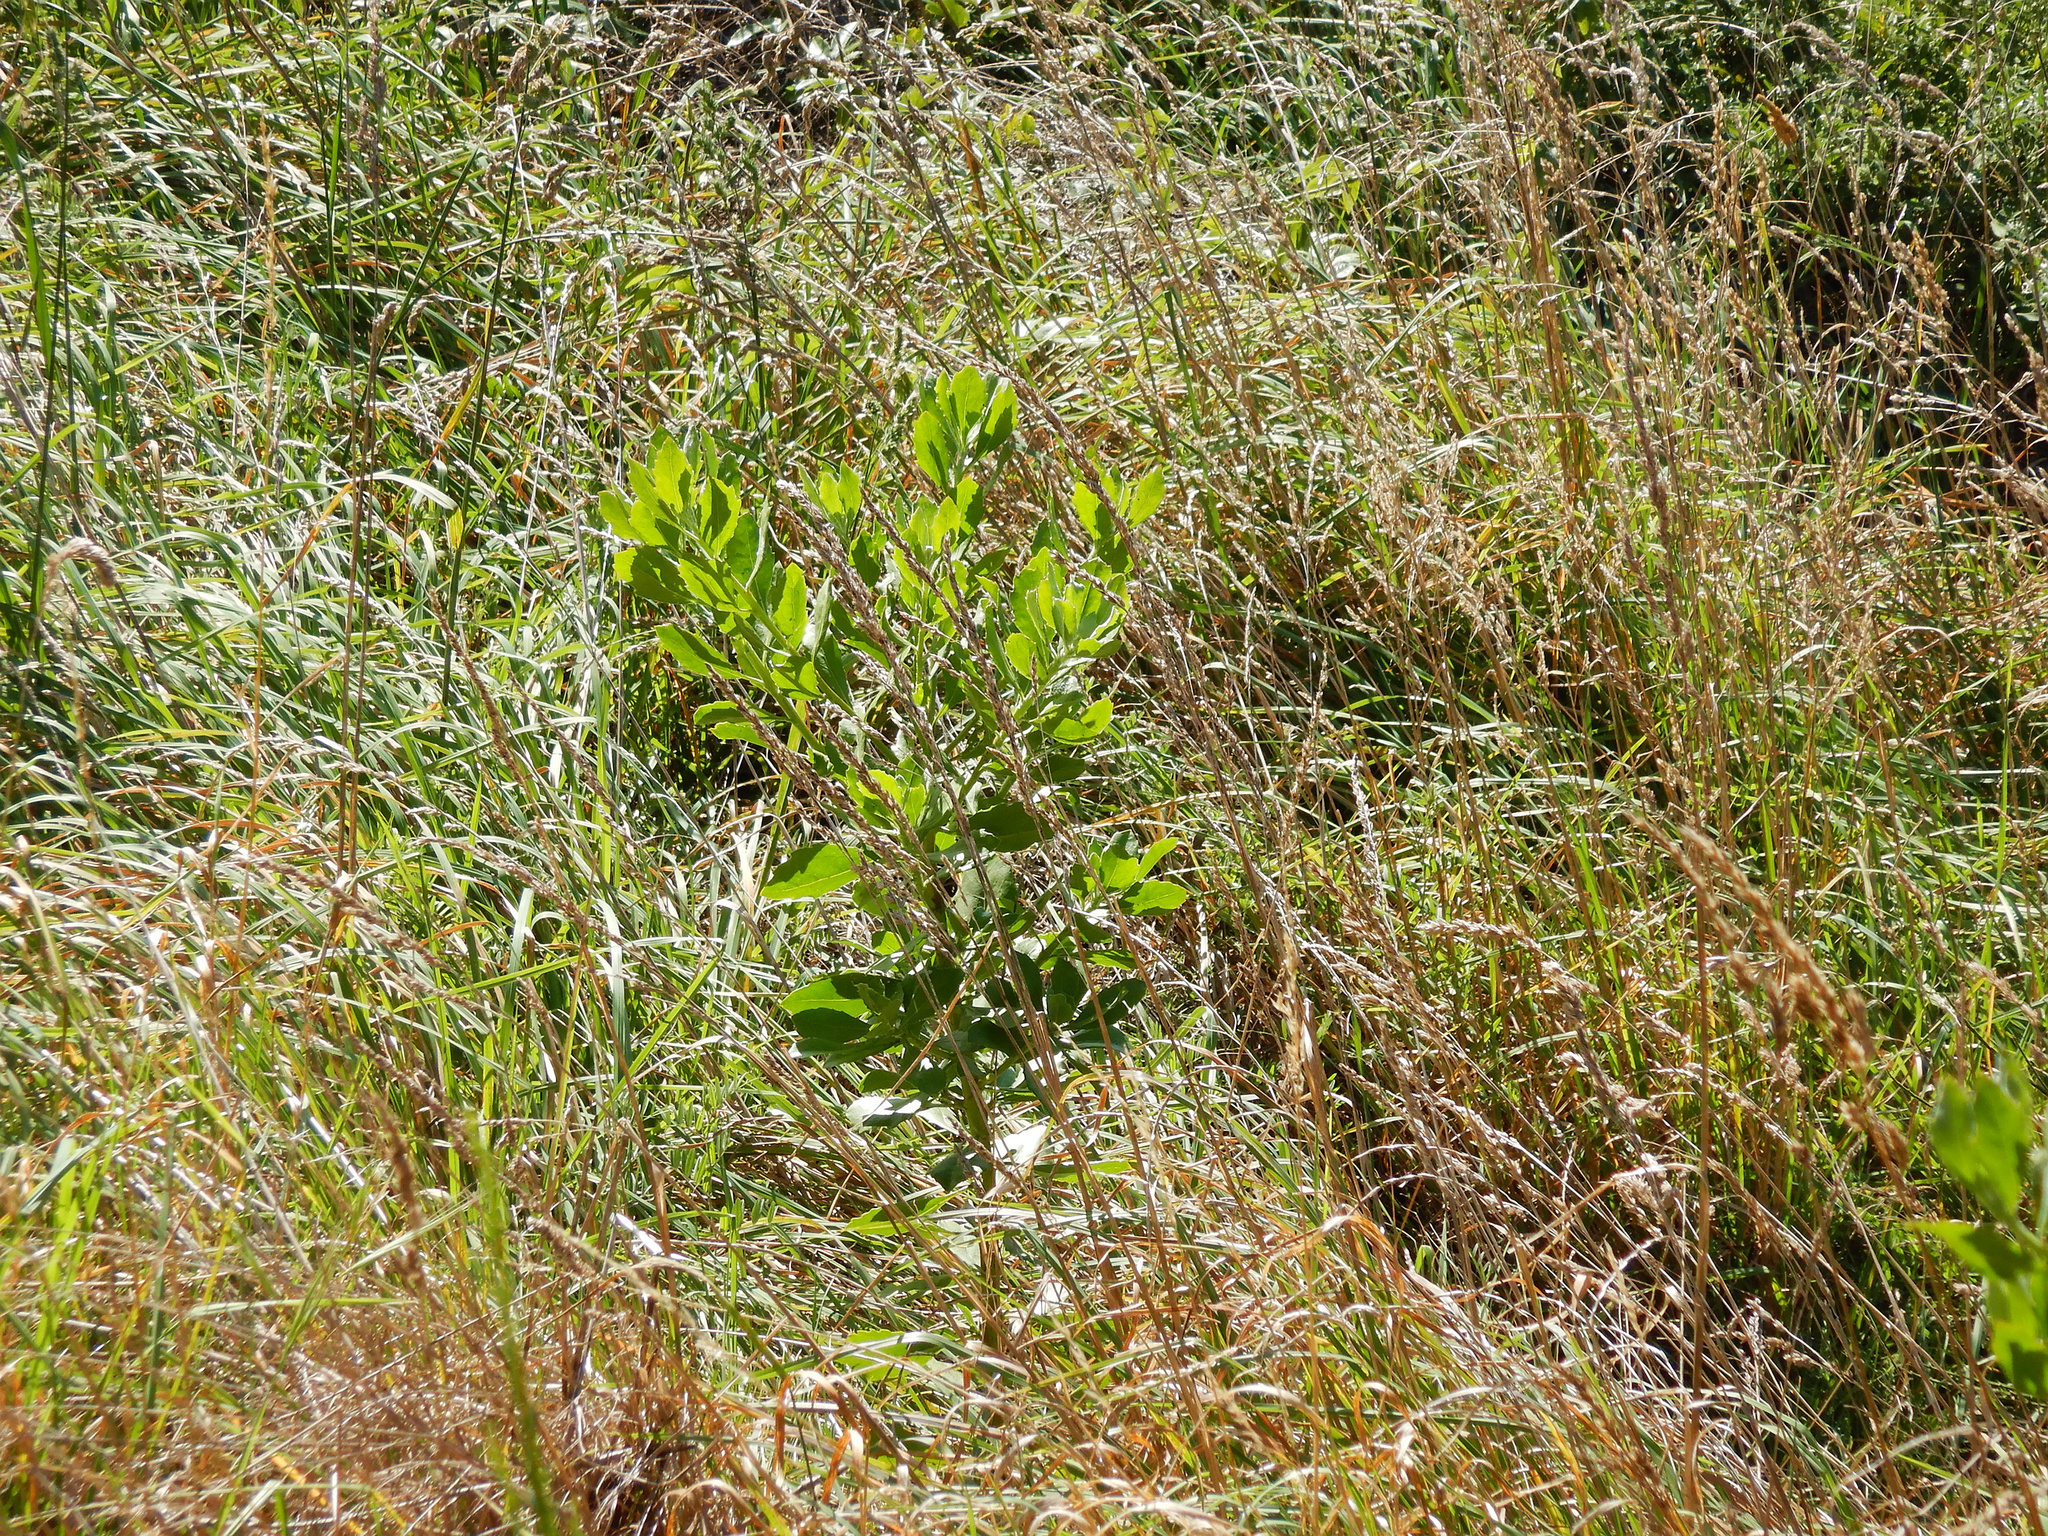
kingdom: Plantae
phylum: Tracheophyta
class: Magnoliopsida
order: Asterales
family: Asteraceae
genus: Osteospermum
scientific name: Osteospermum moniliferum
